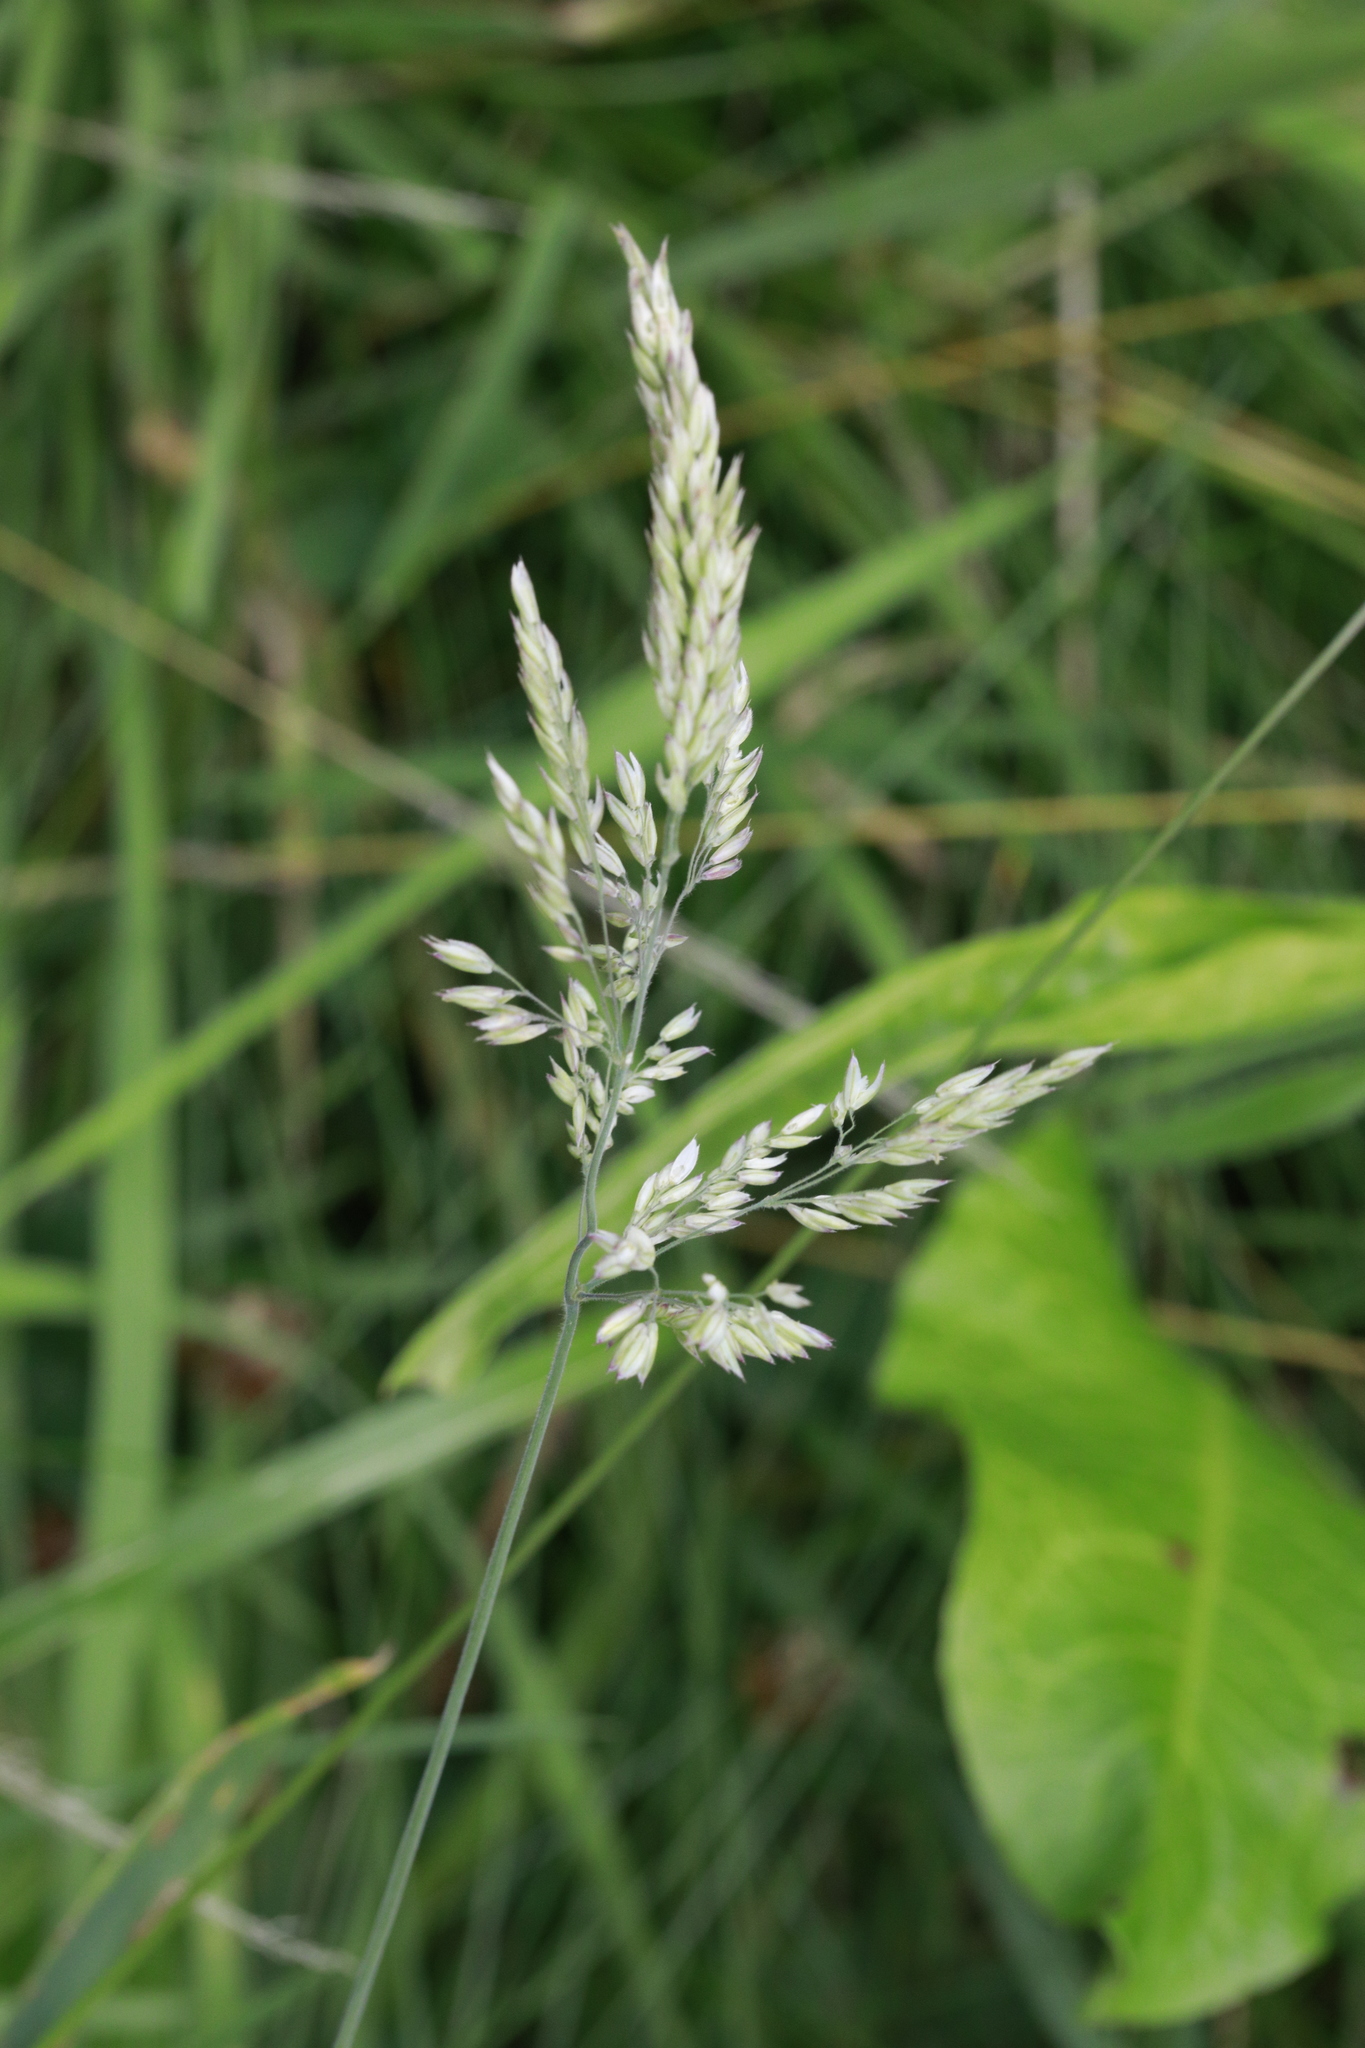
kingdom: Plantae
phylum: Tracheophyta
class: Liliopsida
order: Poales
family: Poaceae
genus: Holcus
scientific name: Holcus lanatus
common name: Yorkshire-fog
